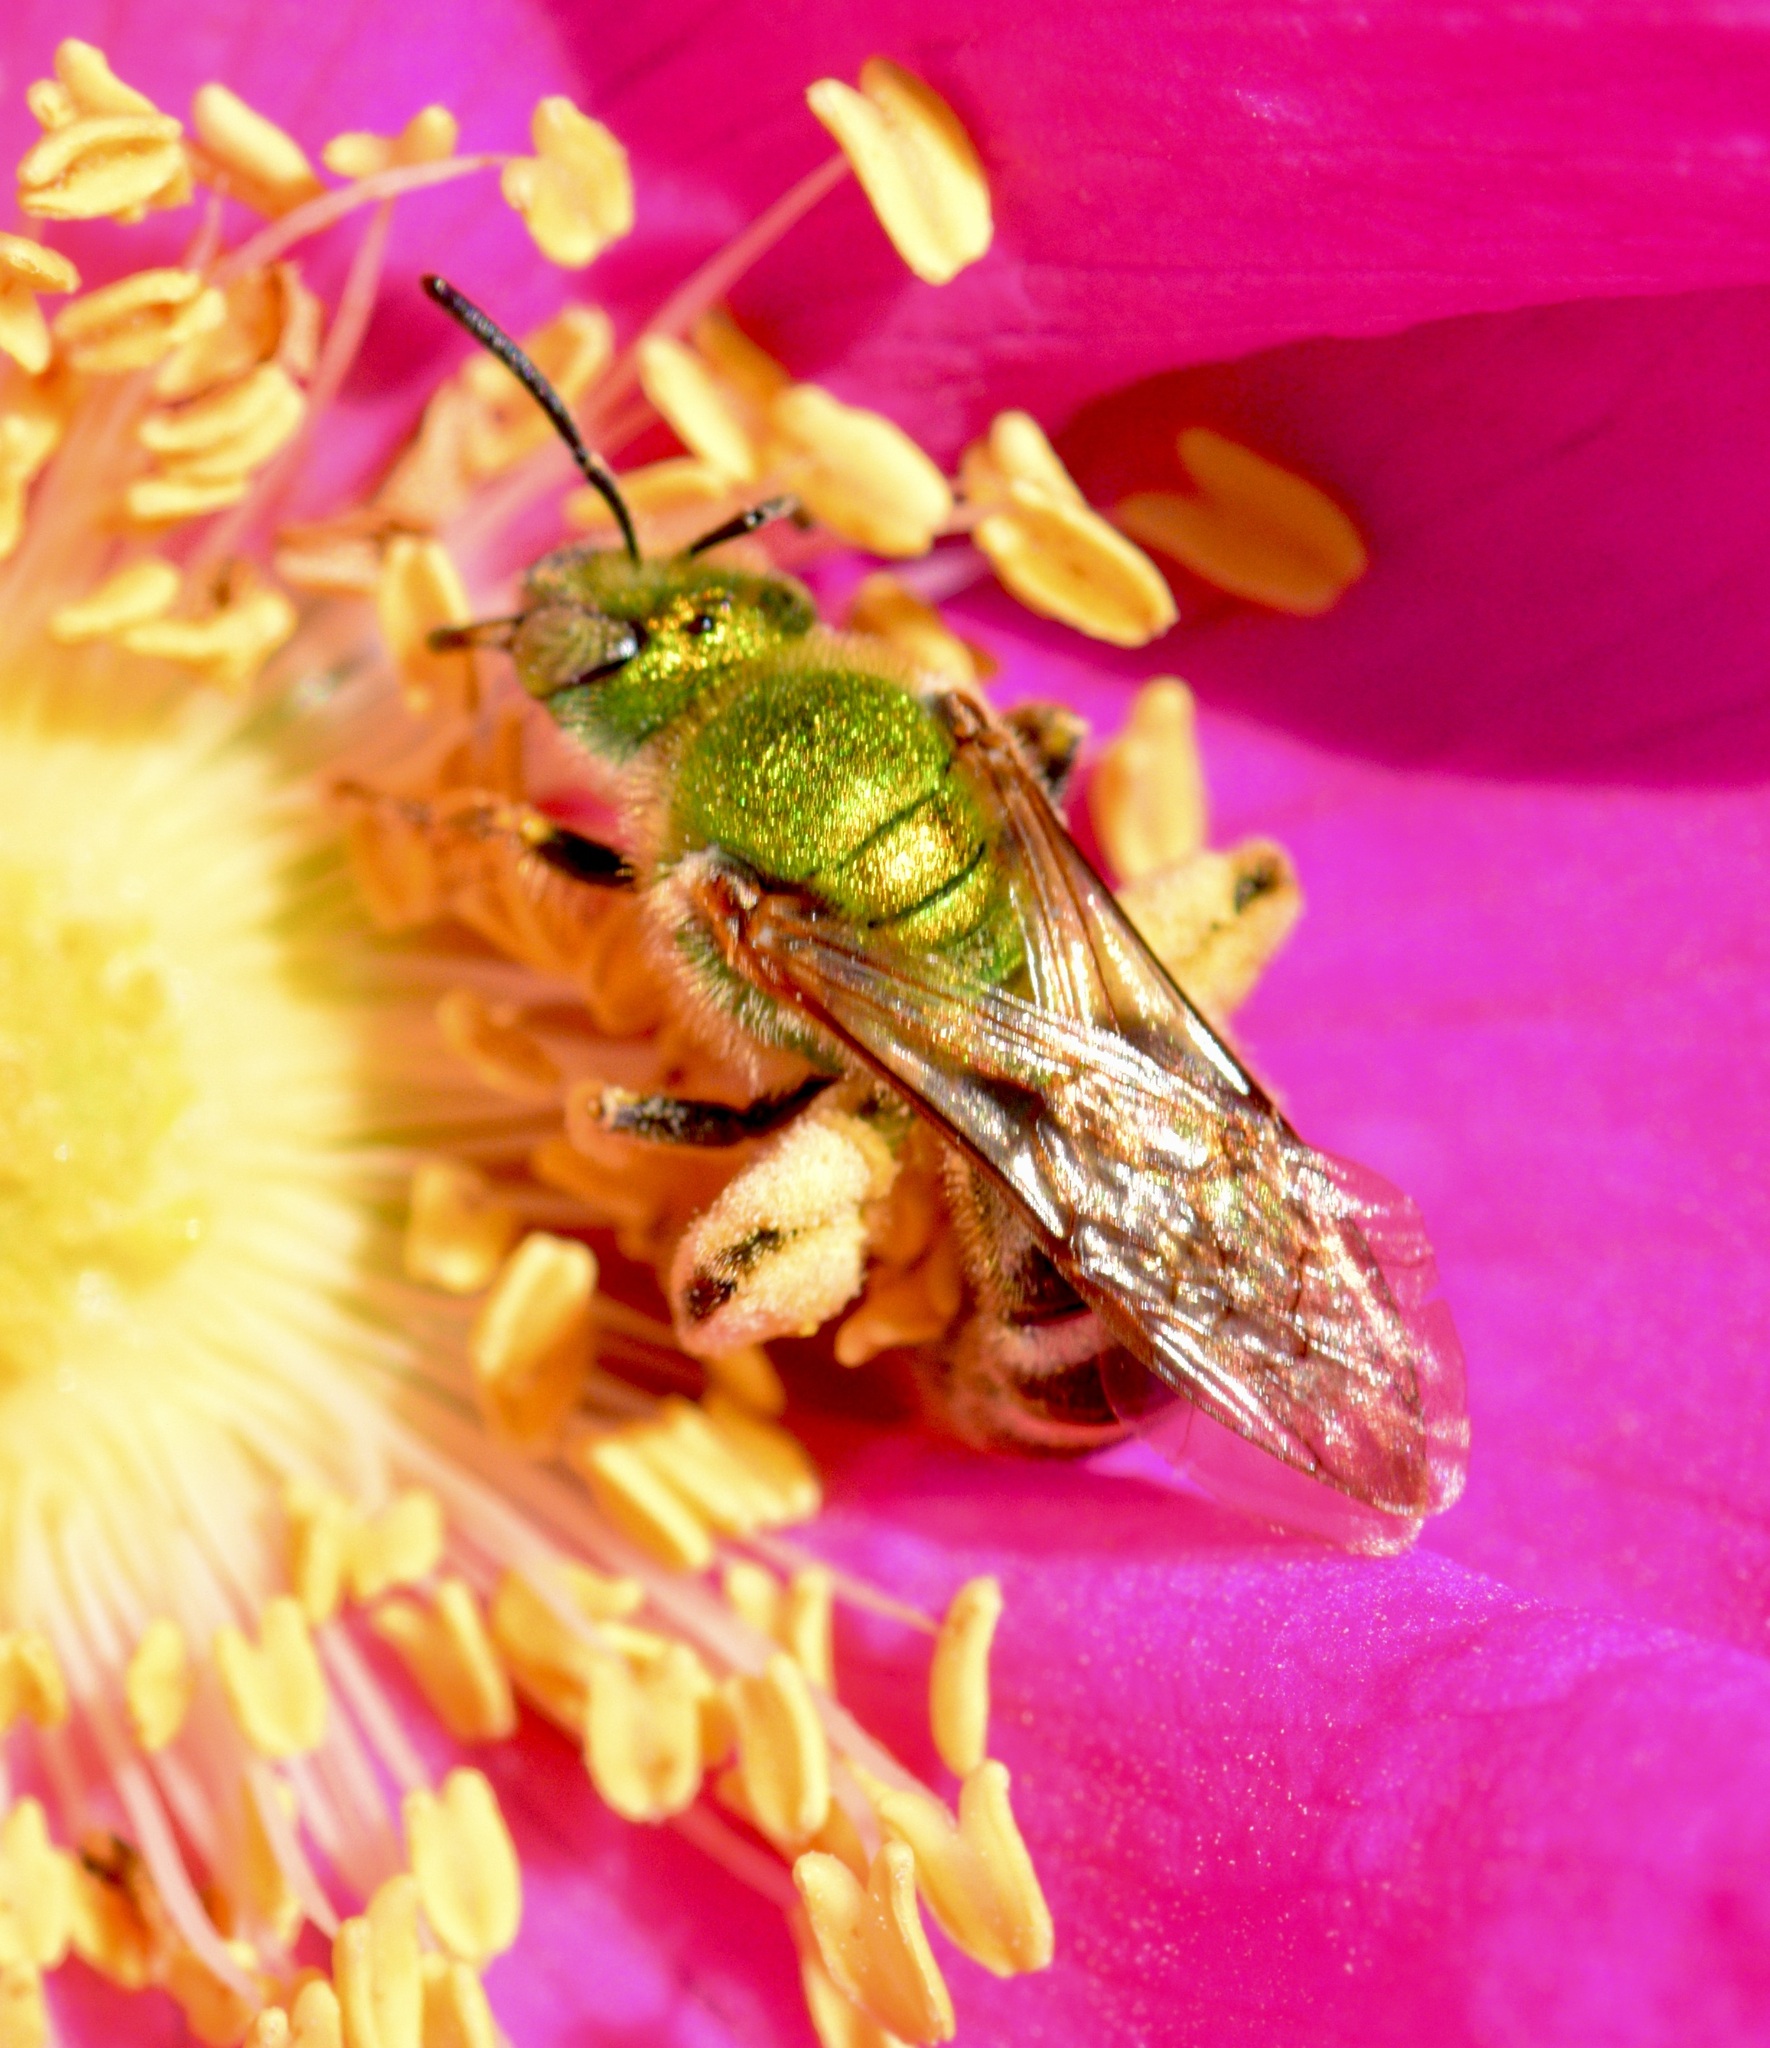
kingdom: Animalia
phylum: Arthropoda
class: Insecta
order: Hymenoptera
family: Halictidae
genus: Agapostemon
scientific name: Agapostemon virescens
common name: Bicolored striped sweat bee
